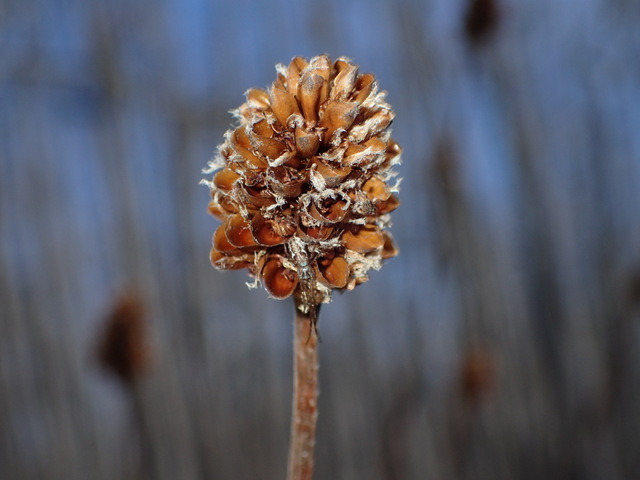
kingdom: Plantae
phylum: Tracheophyta
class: Liliopsida
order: Poales
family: Xyridaceae
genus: Xyris
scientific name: Xyris fimbriata
